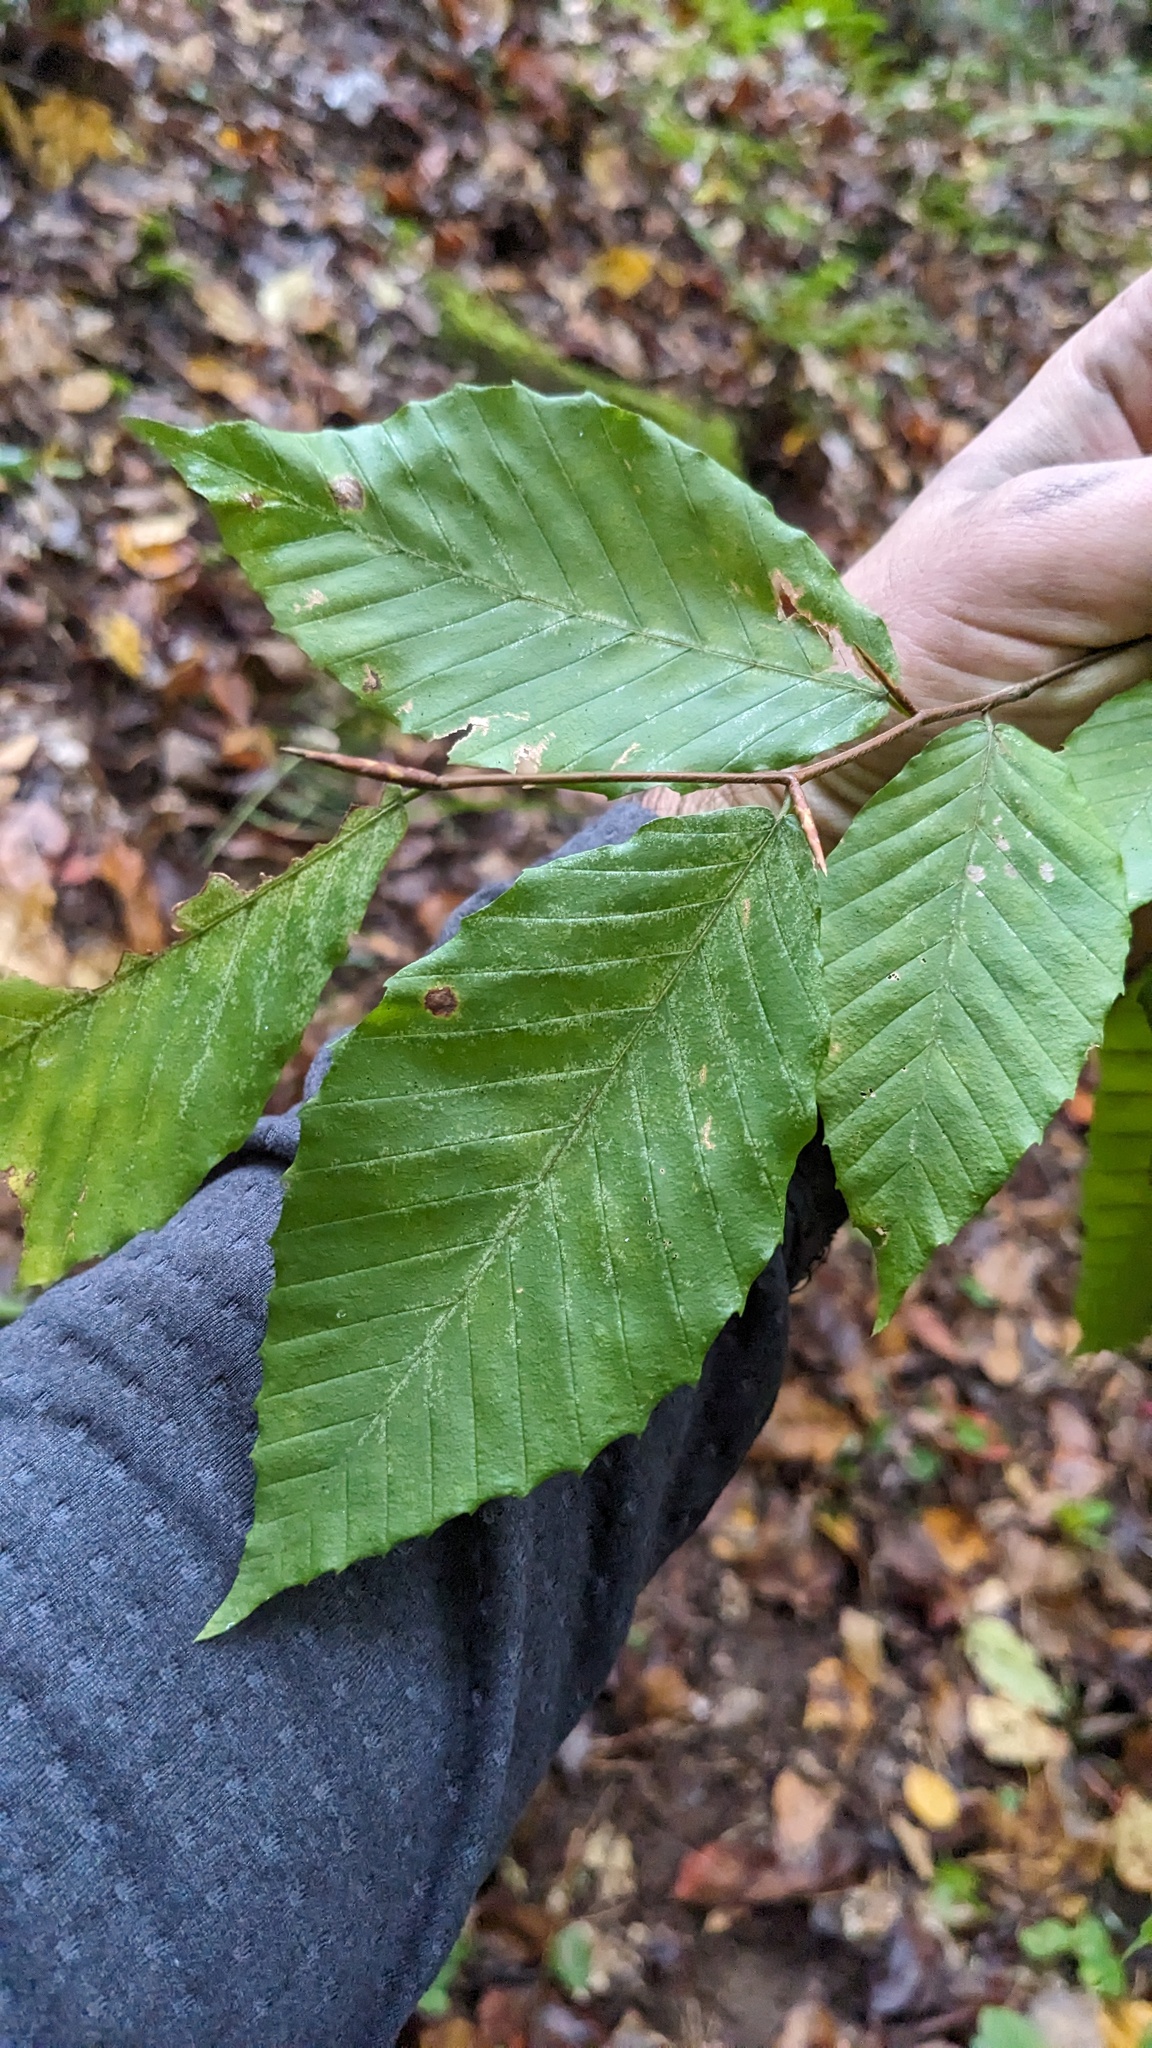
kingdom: Plantae
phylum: Tracheophyta
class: Magnoliopsida
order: Fagales
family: Fagaceae
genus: Fagus
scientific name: Fagus grandifolia
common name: American beech
